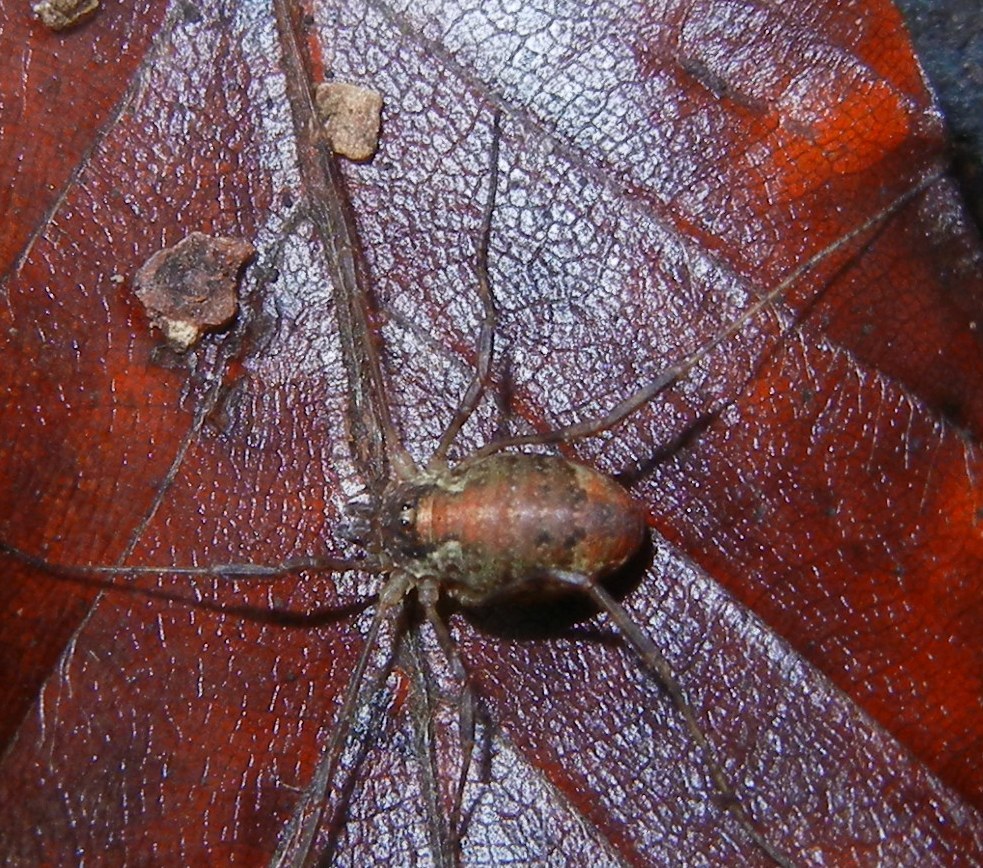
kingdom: Animalia
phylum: Arthropoda
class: Arachnida
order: Opiliones
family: Phalangiidae
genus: Paroligolophus
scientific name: Paroligolophus agrestis
